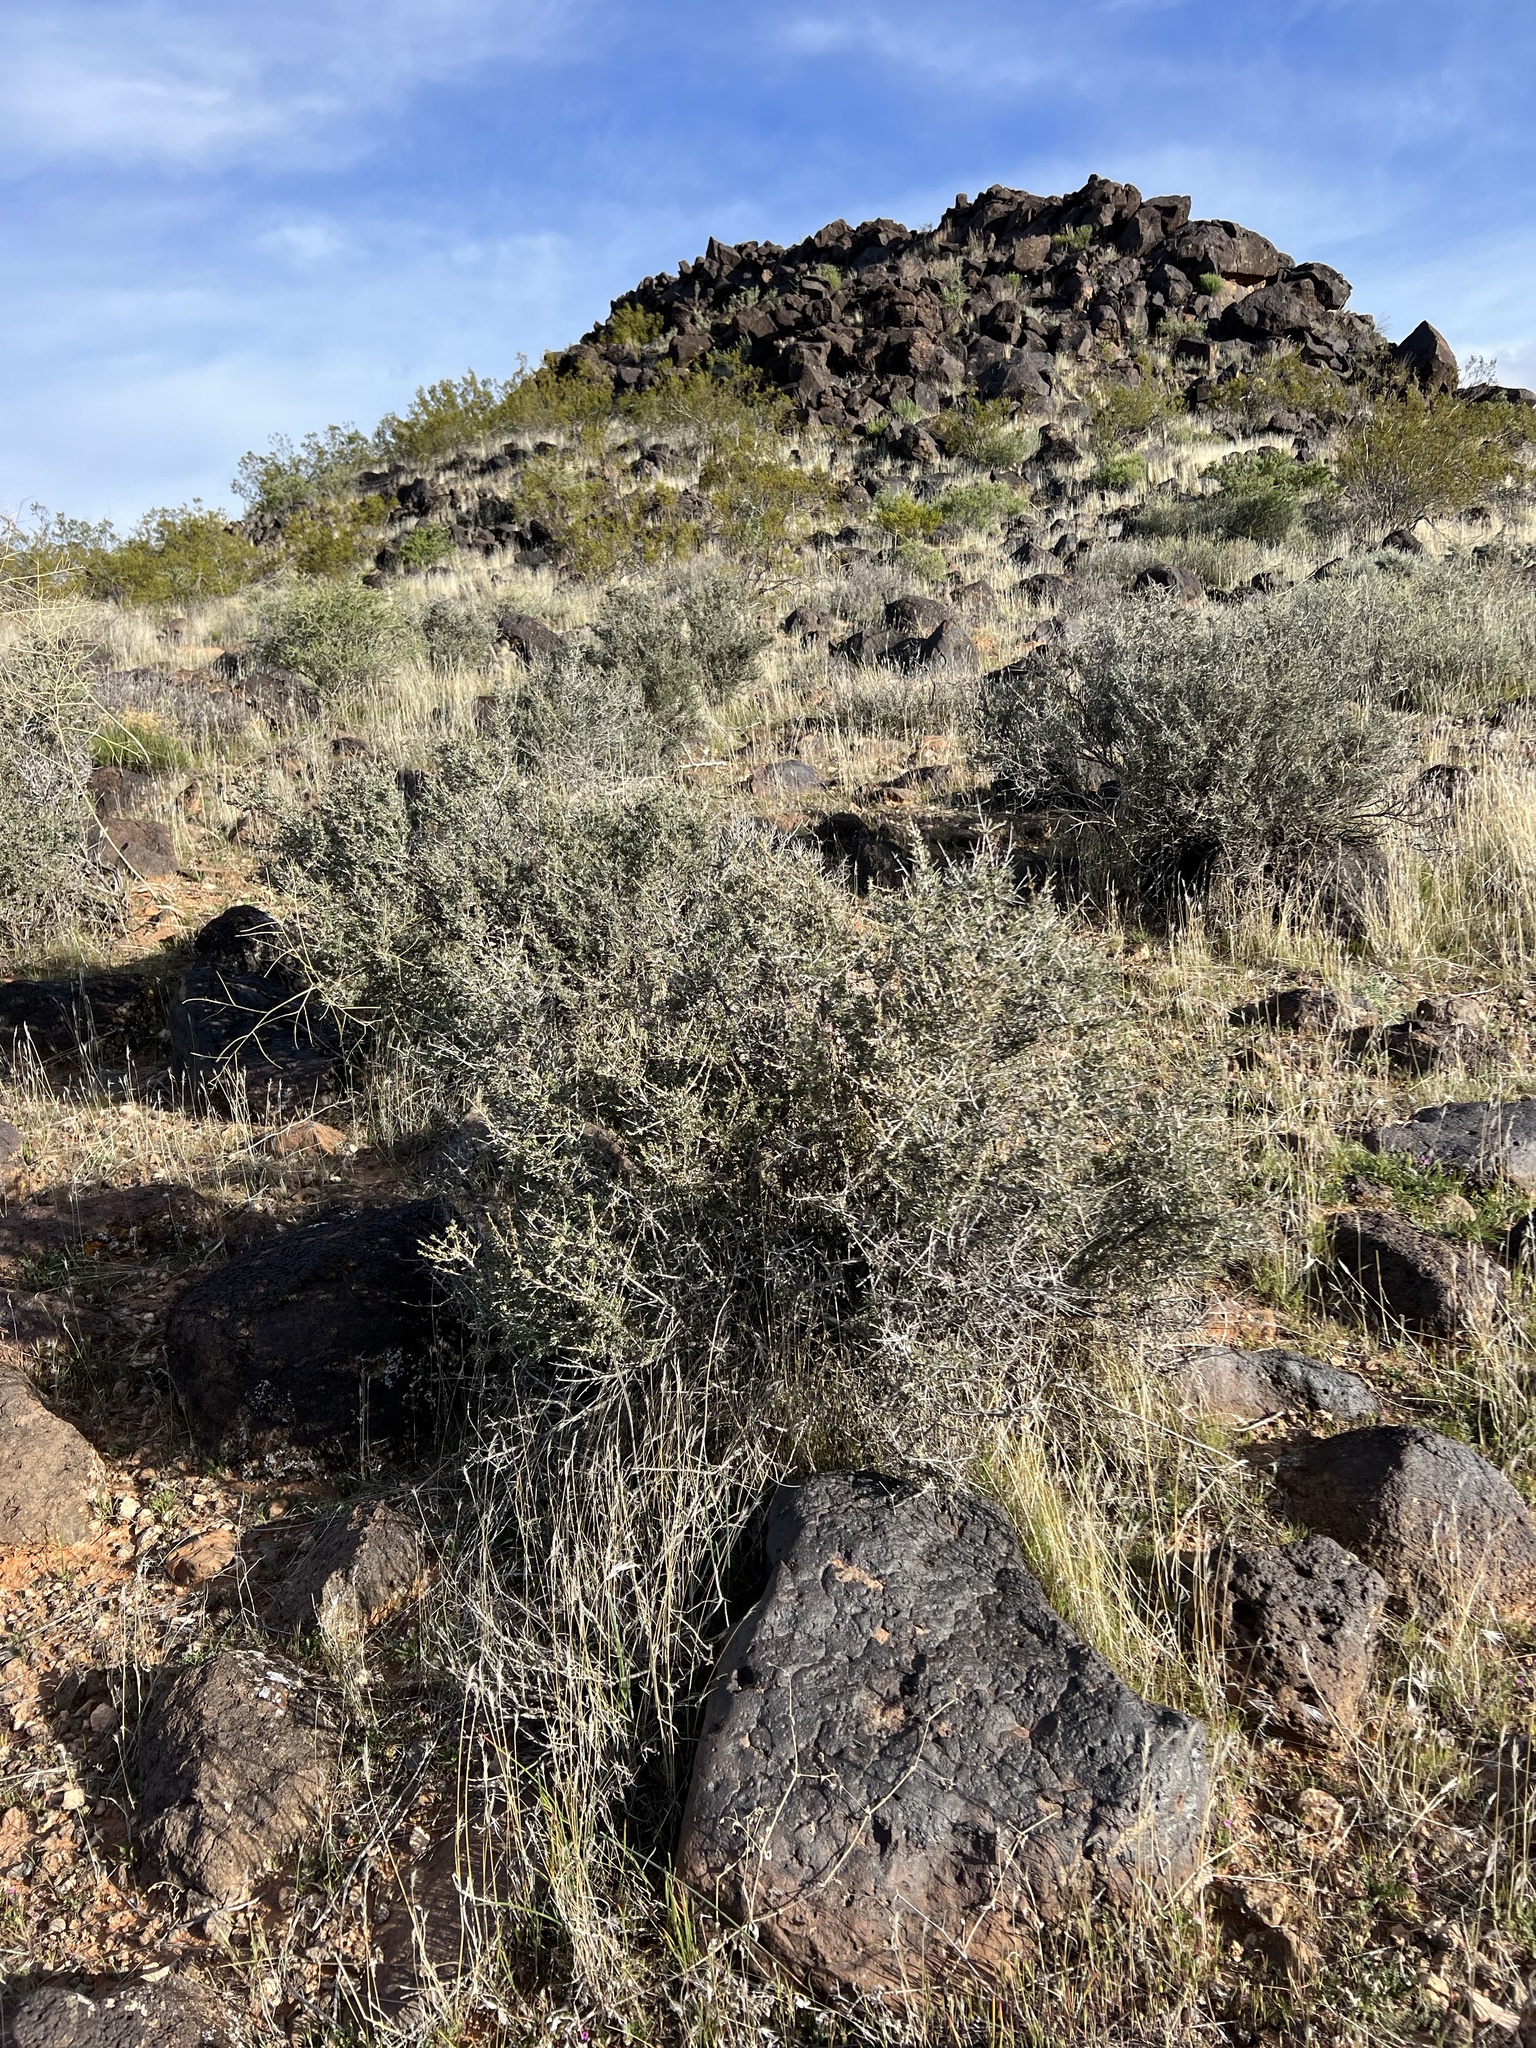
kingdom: Plantae
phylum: Tracheophyta
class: Magnoliopsida
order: Rosales
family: Rosaceae
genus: Coleogyne
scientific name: Coleogyne ramosissima
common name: Blackbrush
